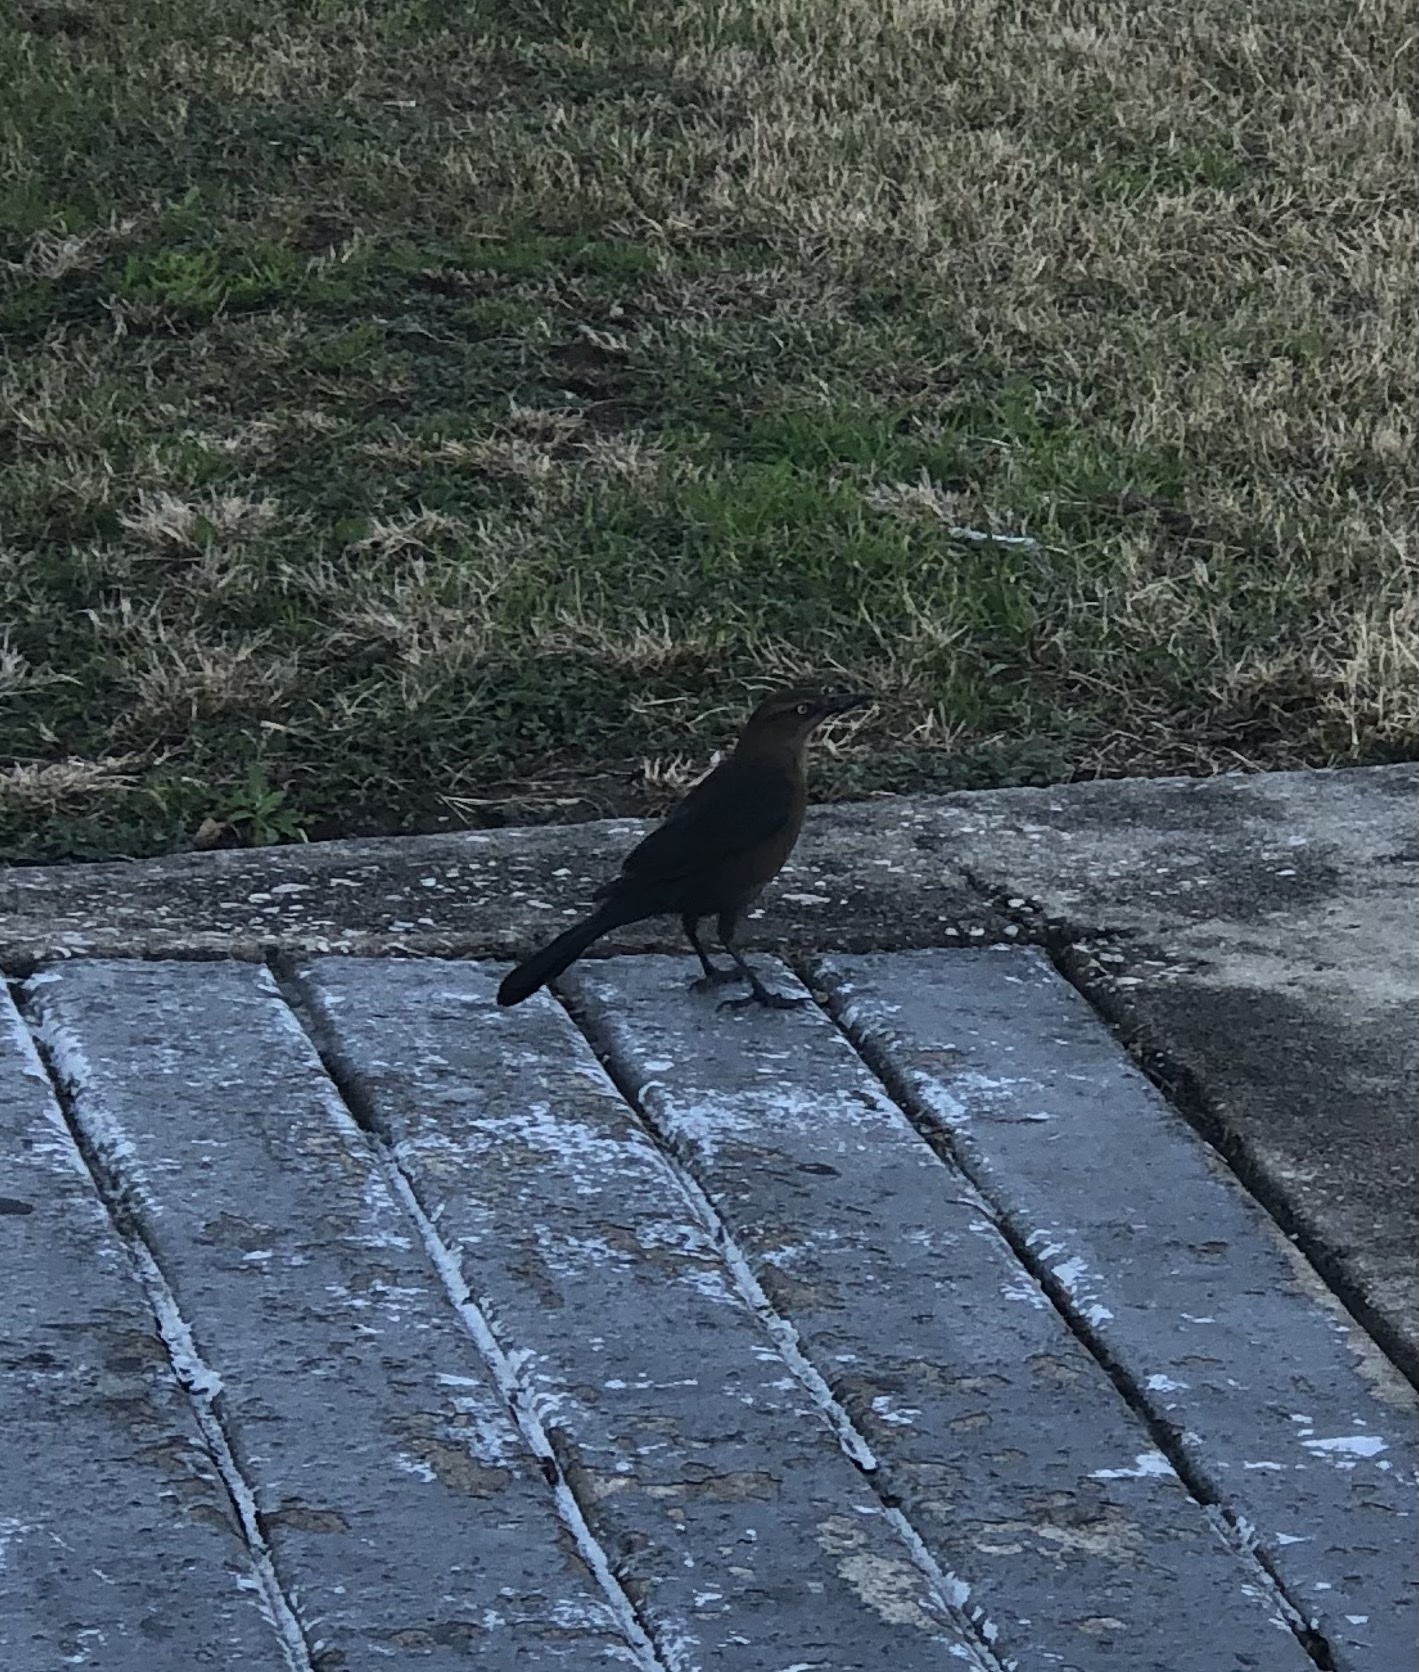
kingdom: Animalia
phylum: Chordata
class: Aves
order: Passeriformes
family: Icteridae
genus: Quiscalus
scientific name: Quiscalus mexicanus
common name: Great-tailed grackle
